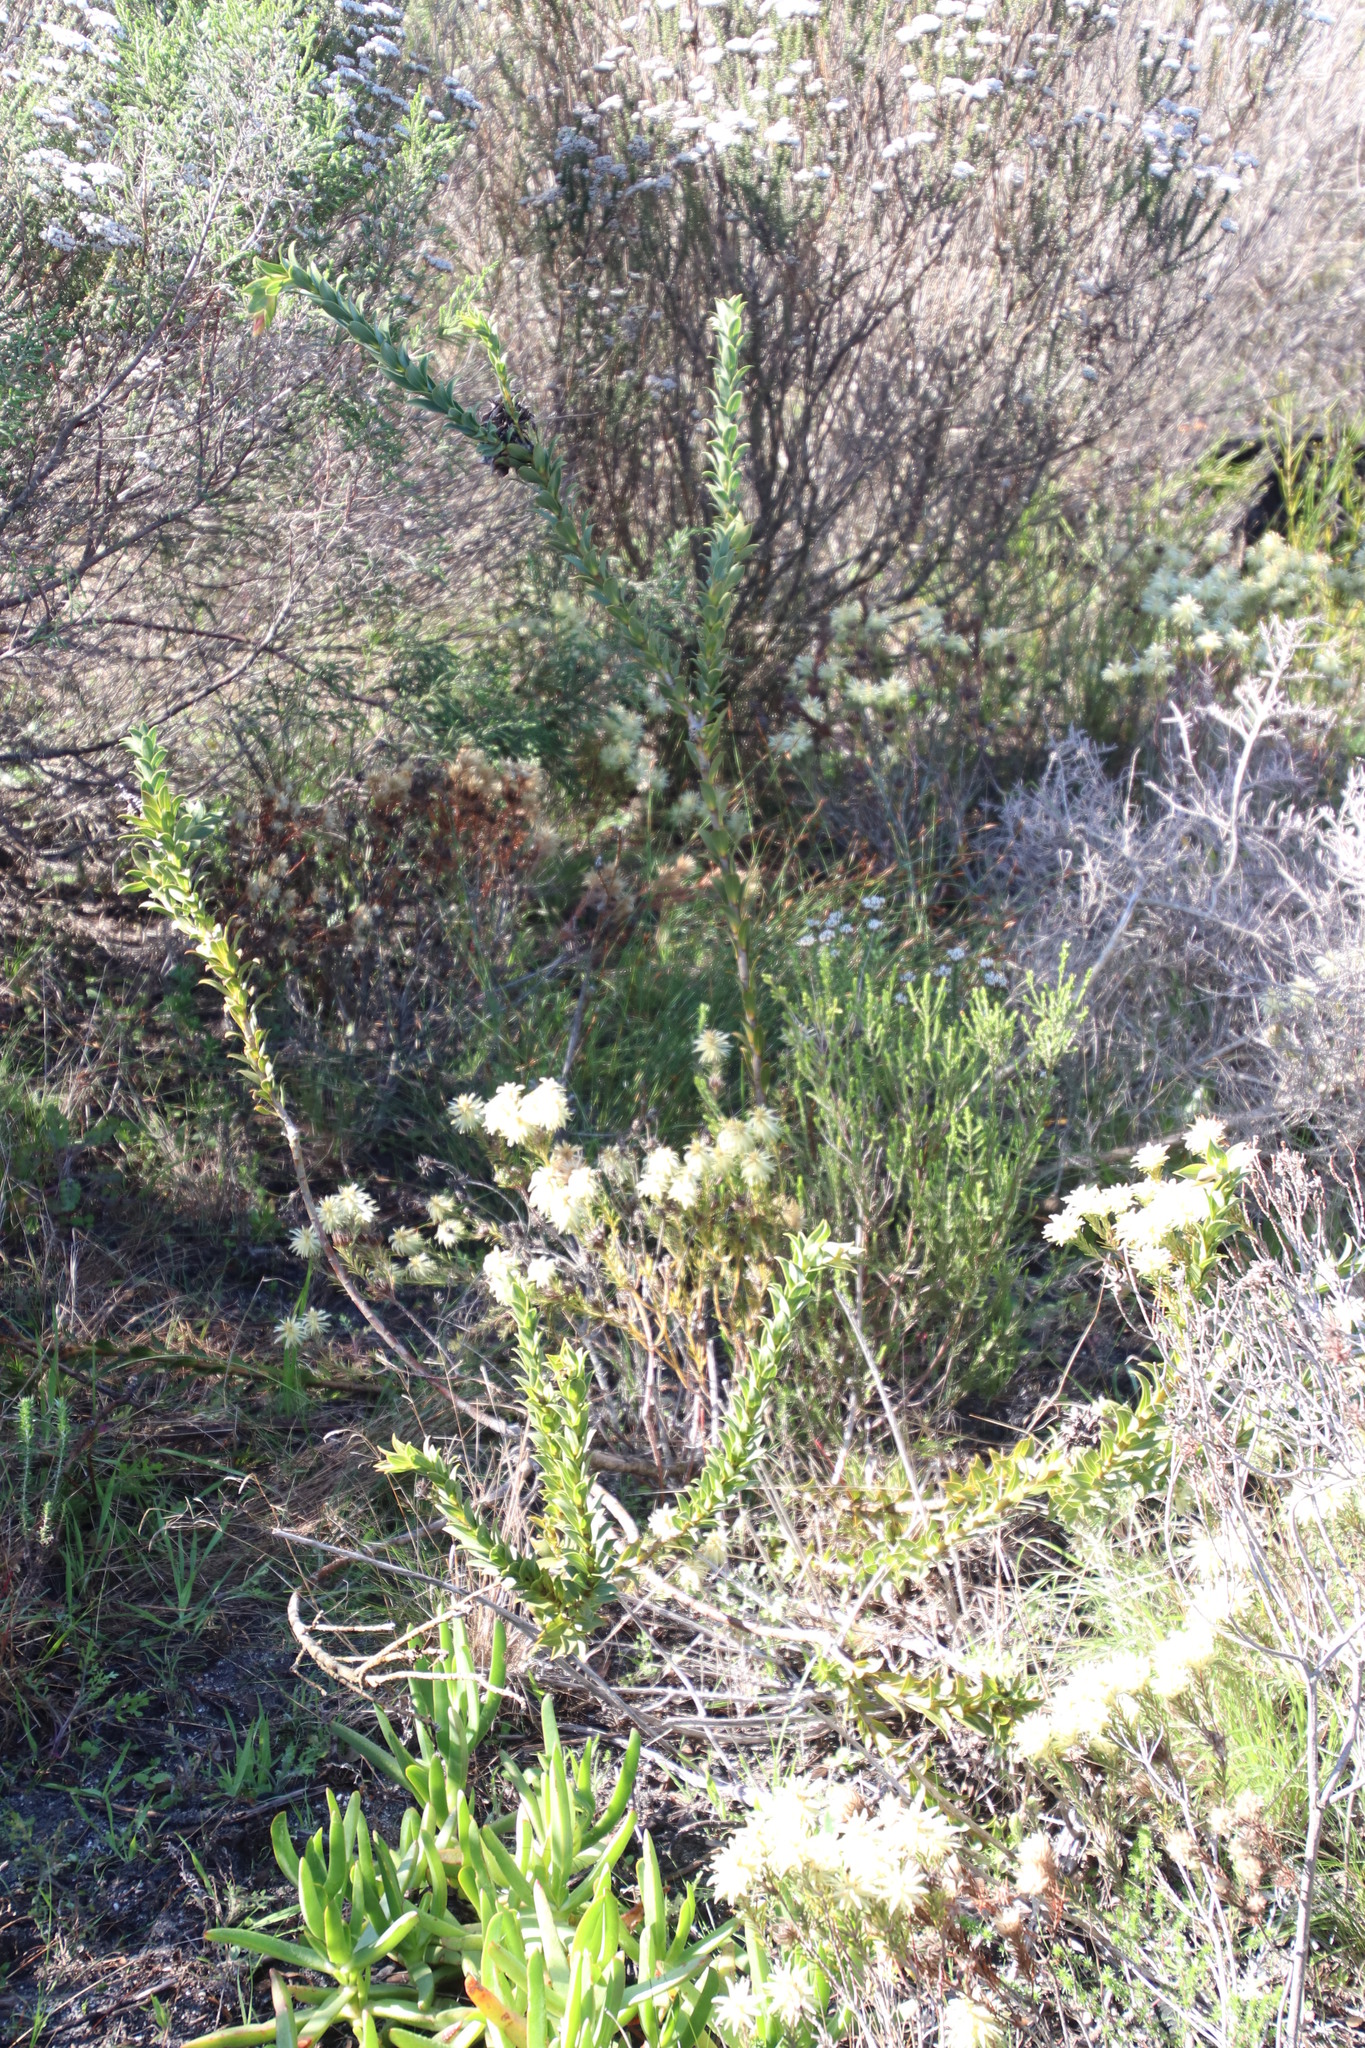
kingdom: Plantae
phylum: Tracheophyta
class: Magnoliopsida
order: Fabales
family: Fabaceae
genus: Liparia
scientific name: Liparia splendens
